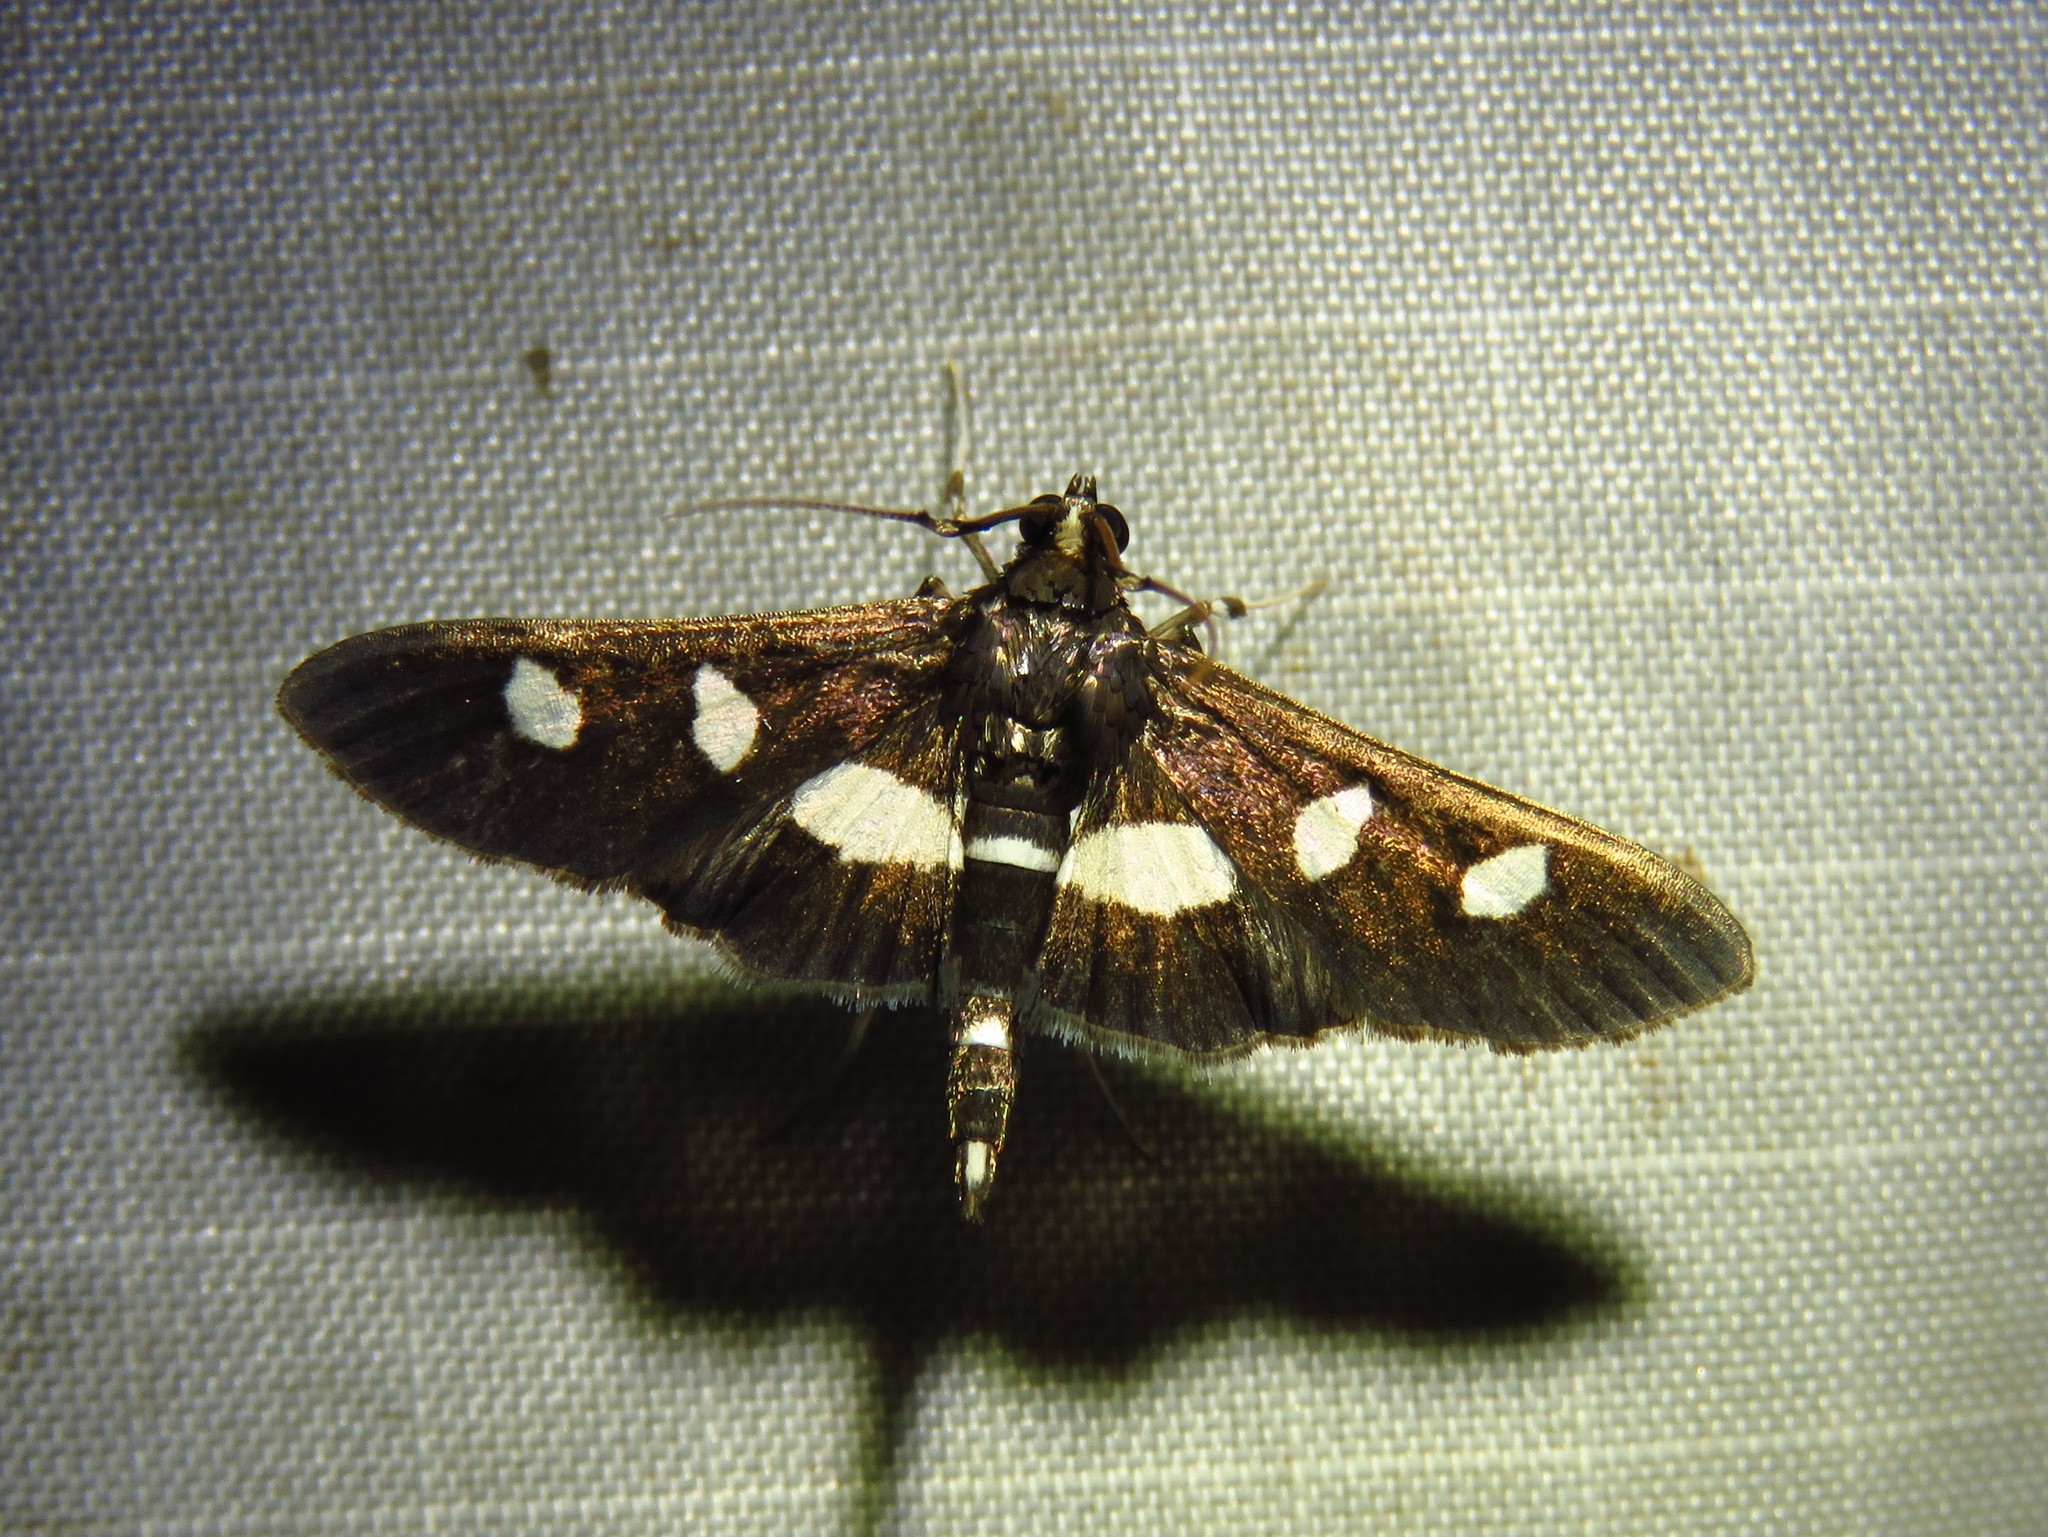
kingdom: Animalia
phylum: Arthropoda
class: Insecta
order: Lepidoptera
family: Crambidae
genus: Desmia
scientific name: Desmia
